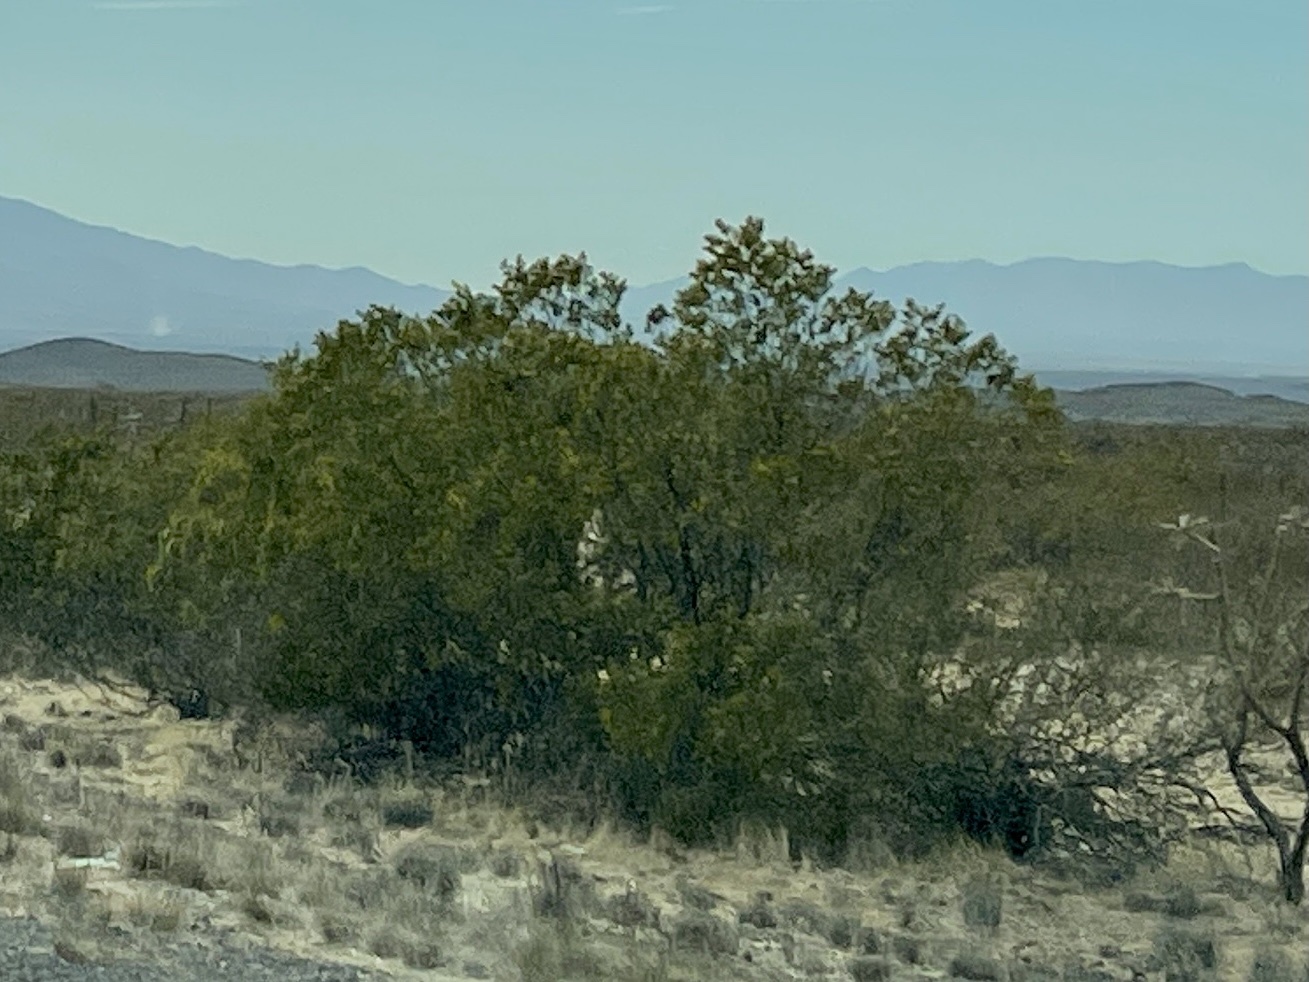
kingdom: Plantae
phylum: Tracheophyta
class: Magnoliopsida
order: Zygophyllales
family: Zygophyllaceae
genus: Larrea
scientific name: Larrea tridentata
